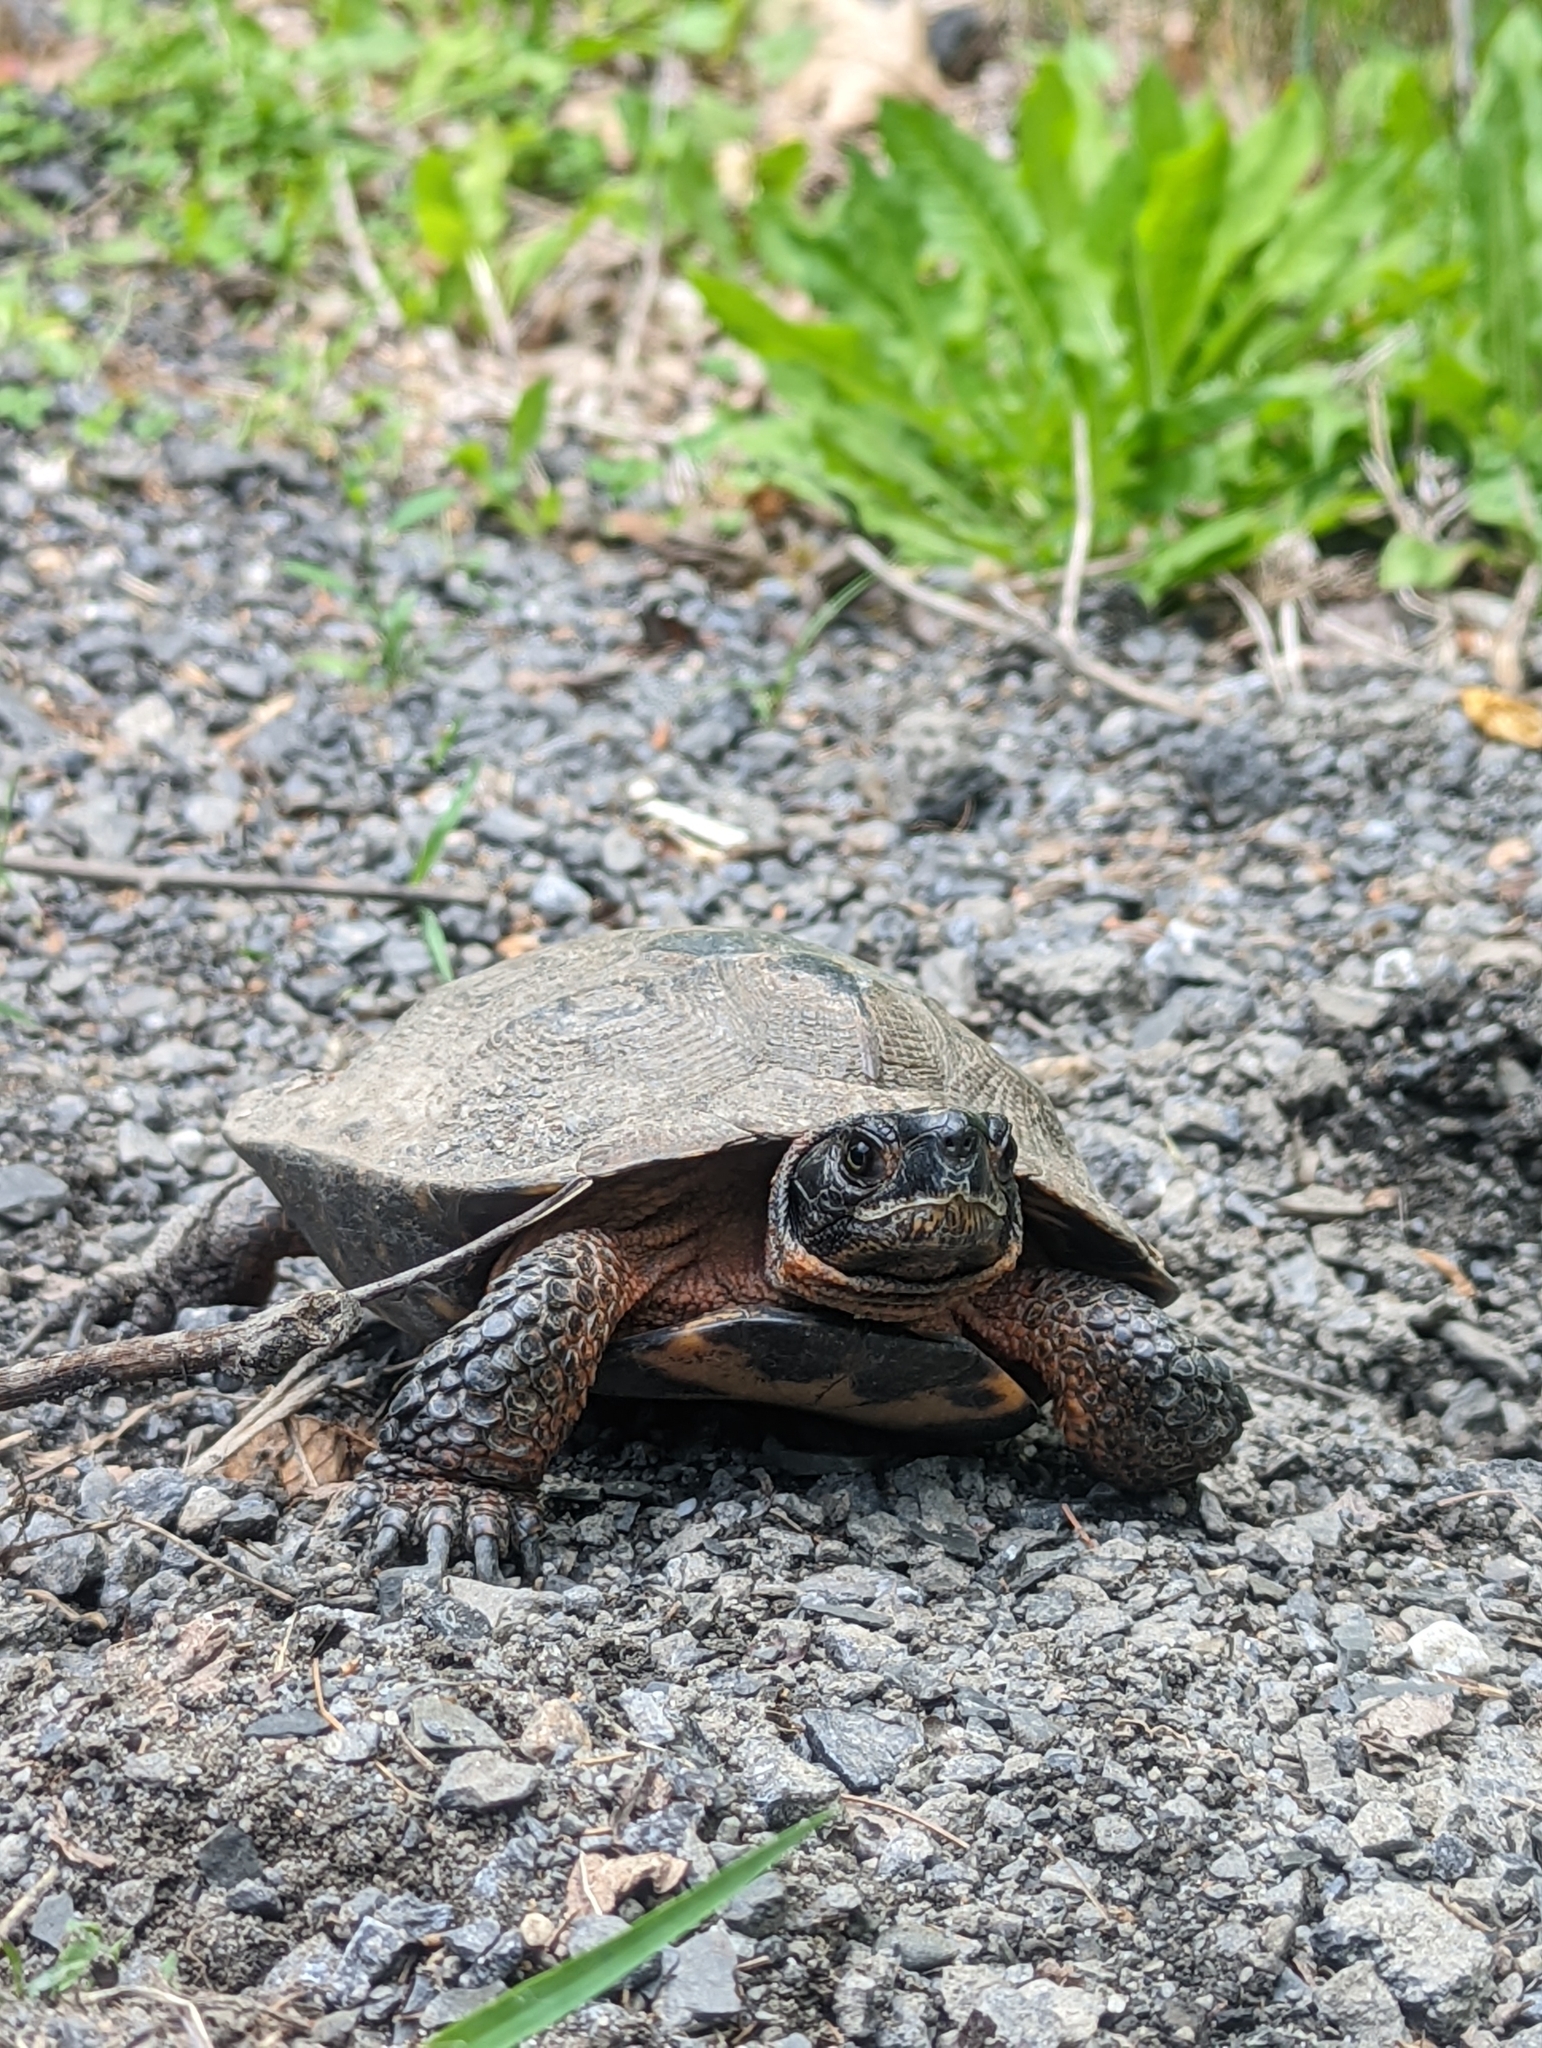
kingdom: Animalia
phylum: Chordata
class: Testudines
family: Emydidae
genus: Glyptemys
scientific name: Glyptemys insculpta
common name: Wood turtle
